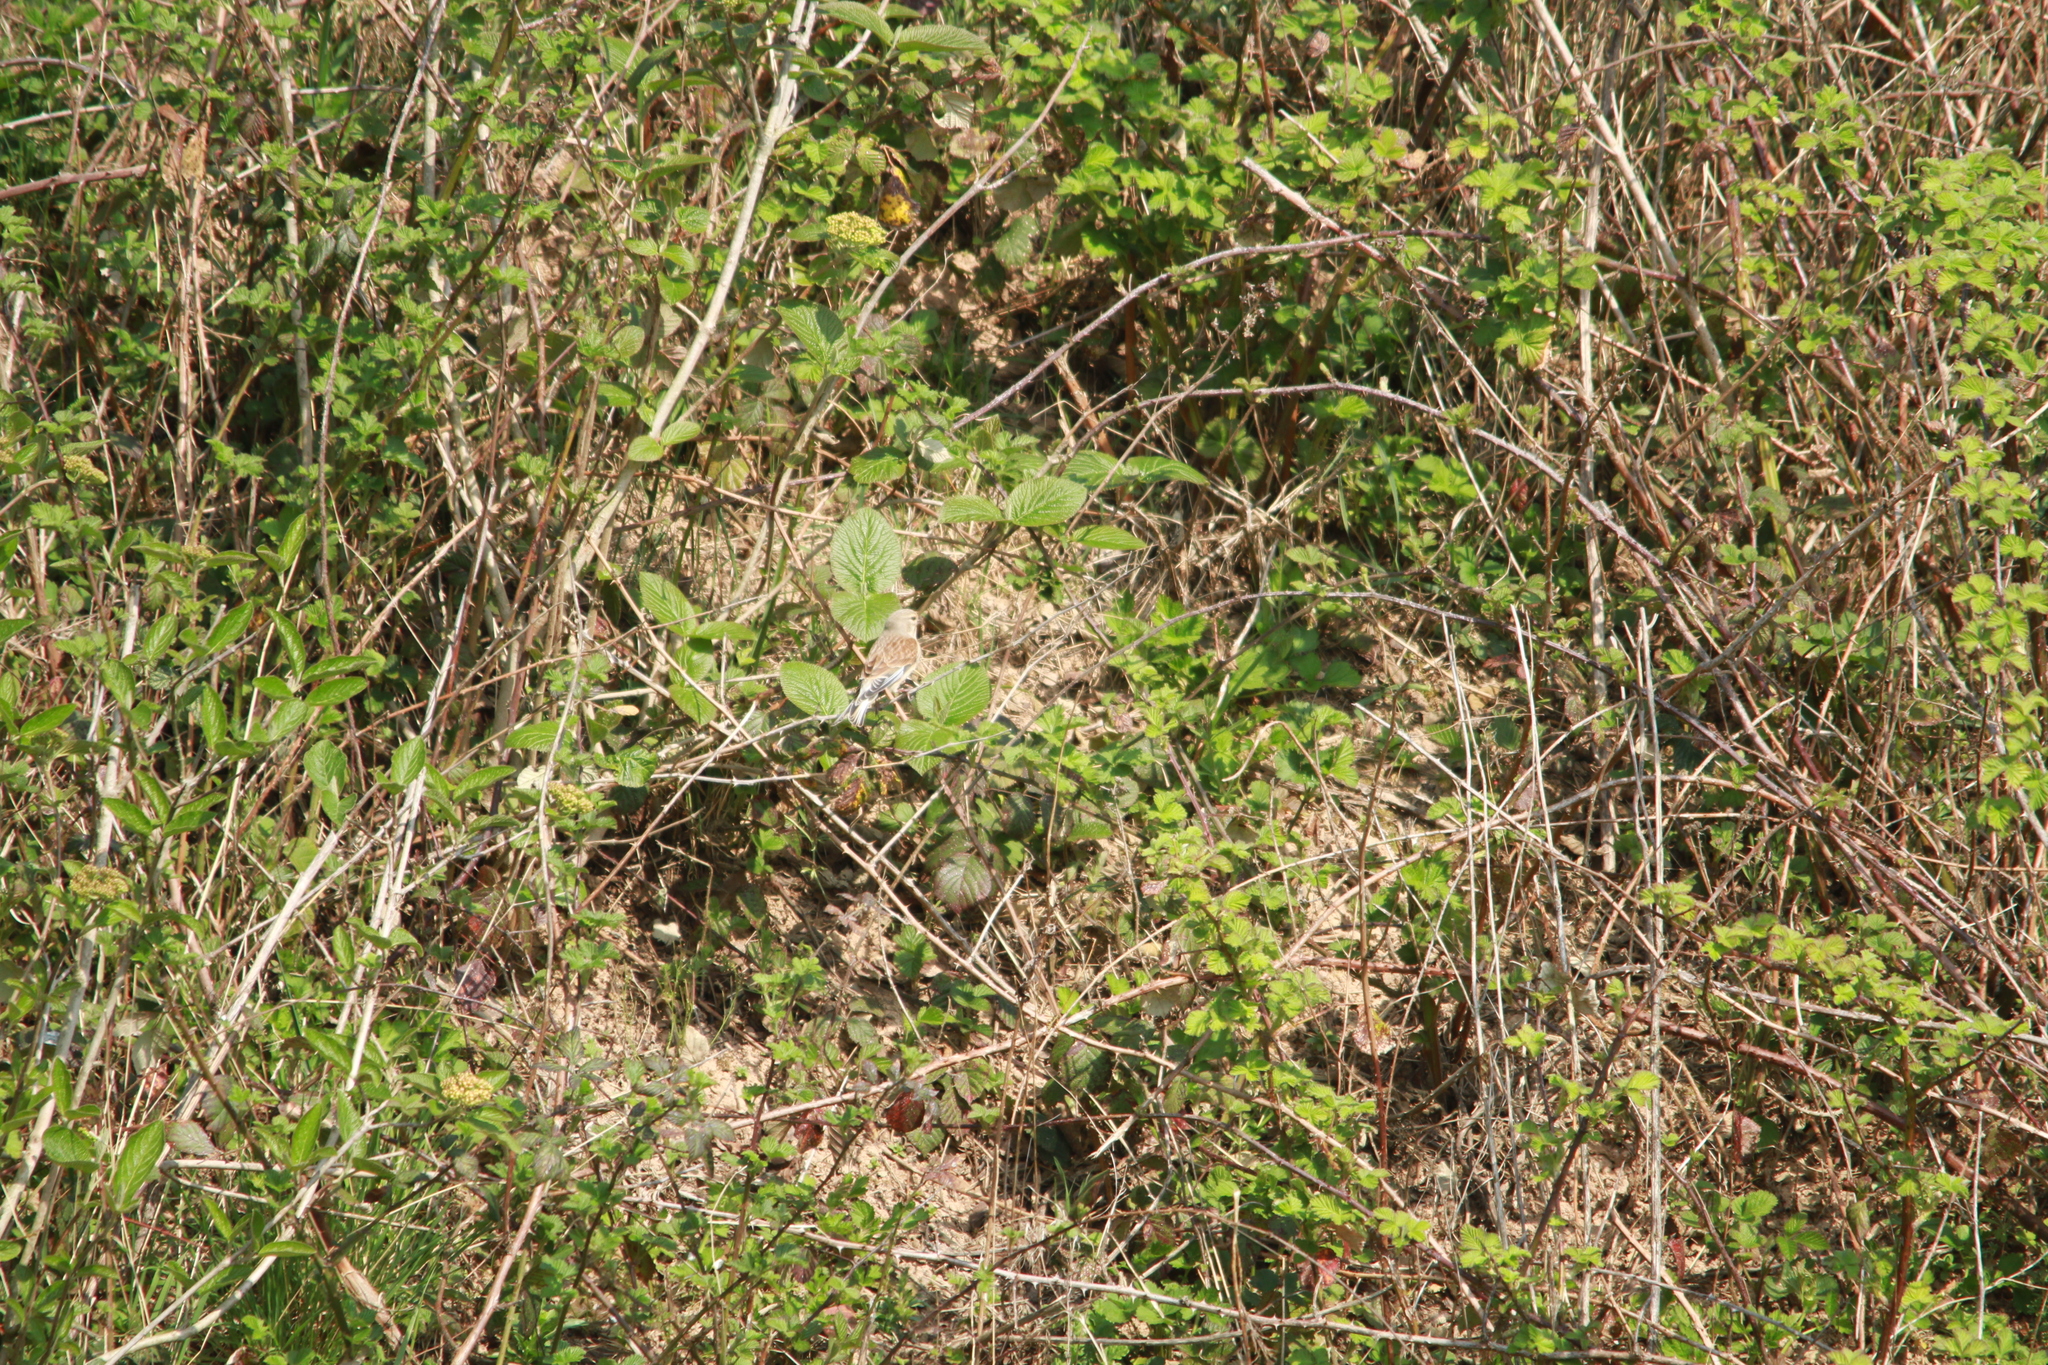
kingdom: Animalia
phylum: Chordata
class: Aves
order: Passeriformes
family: Fringillidae
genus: Linaria
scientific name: Linaria cannabina
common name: Common linnet
